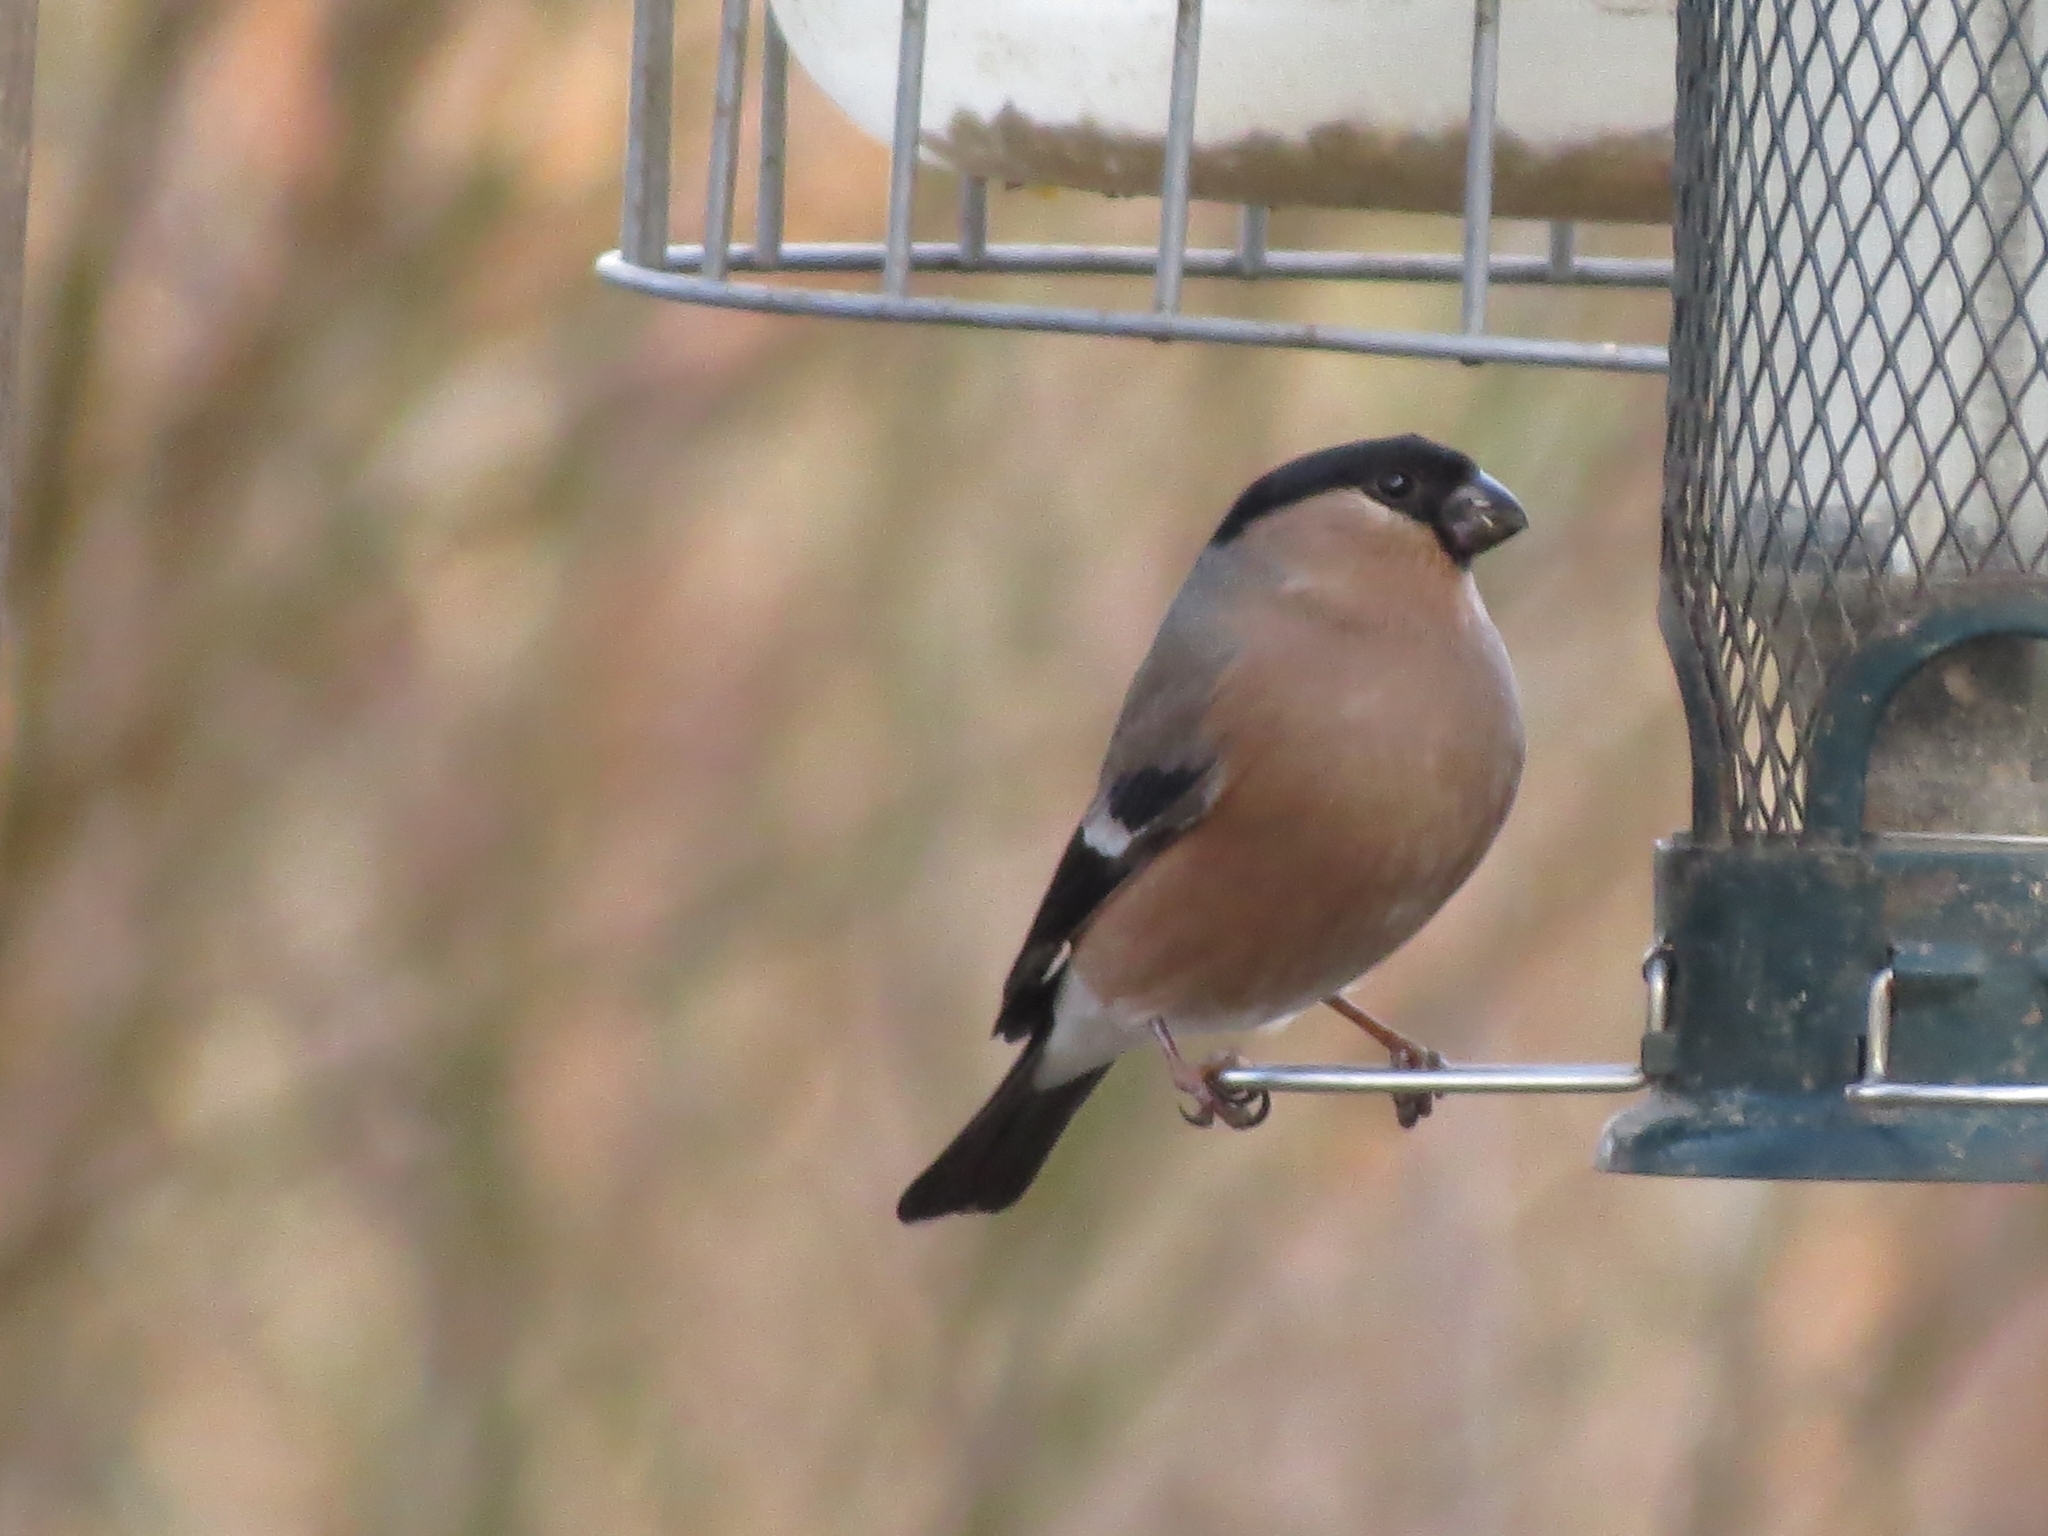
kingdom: Animalia
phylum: Chordata
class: Aves
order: Passeriformes
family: Fringillidae
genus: Pyrrhula
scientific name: Pyrrhula pyrrhula
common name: Eurasian bullfinch
